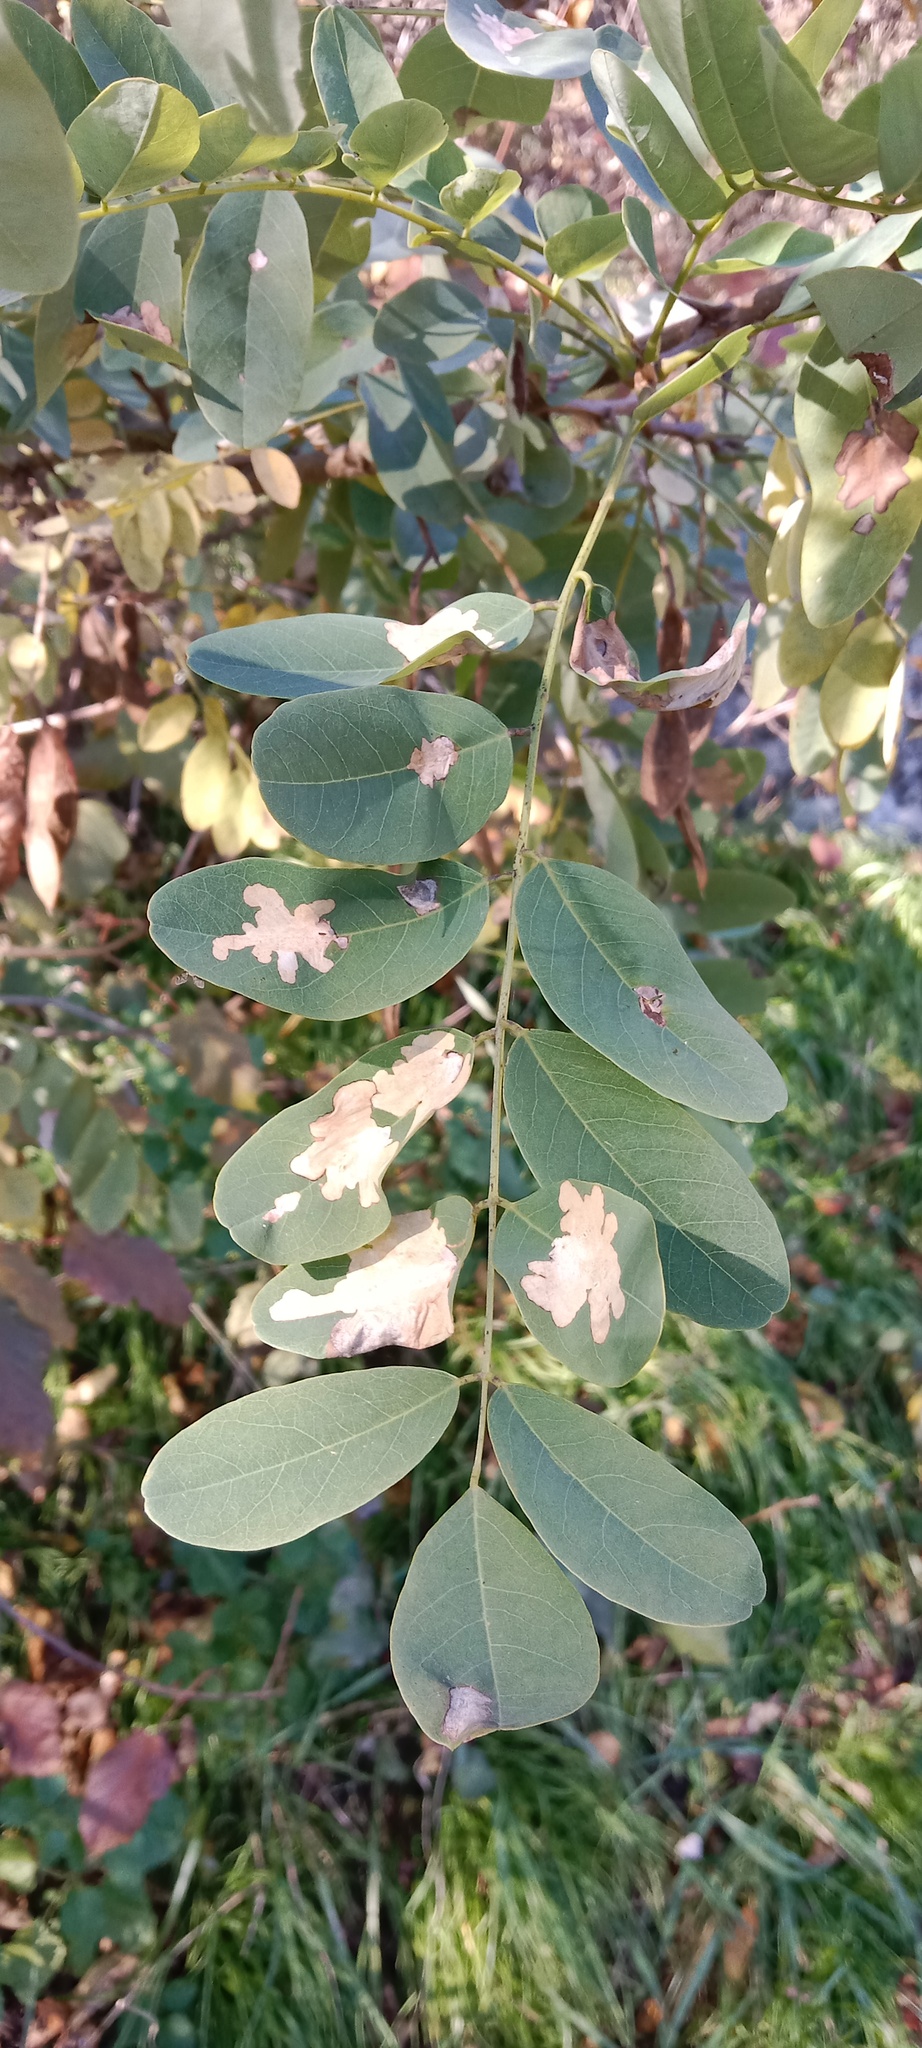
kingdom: Animalia
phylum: Arthropoda
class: Insecta
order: Lepidoptera
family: Gracillariidae
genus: Parectopa
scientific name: Parectopa robiniella
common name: Locust digitate leafminer
